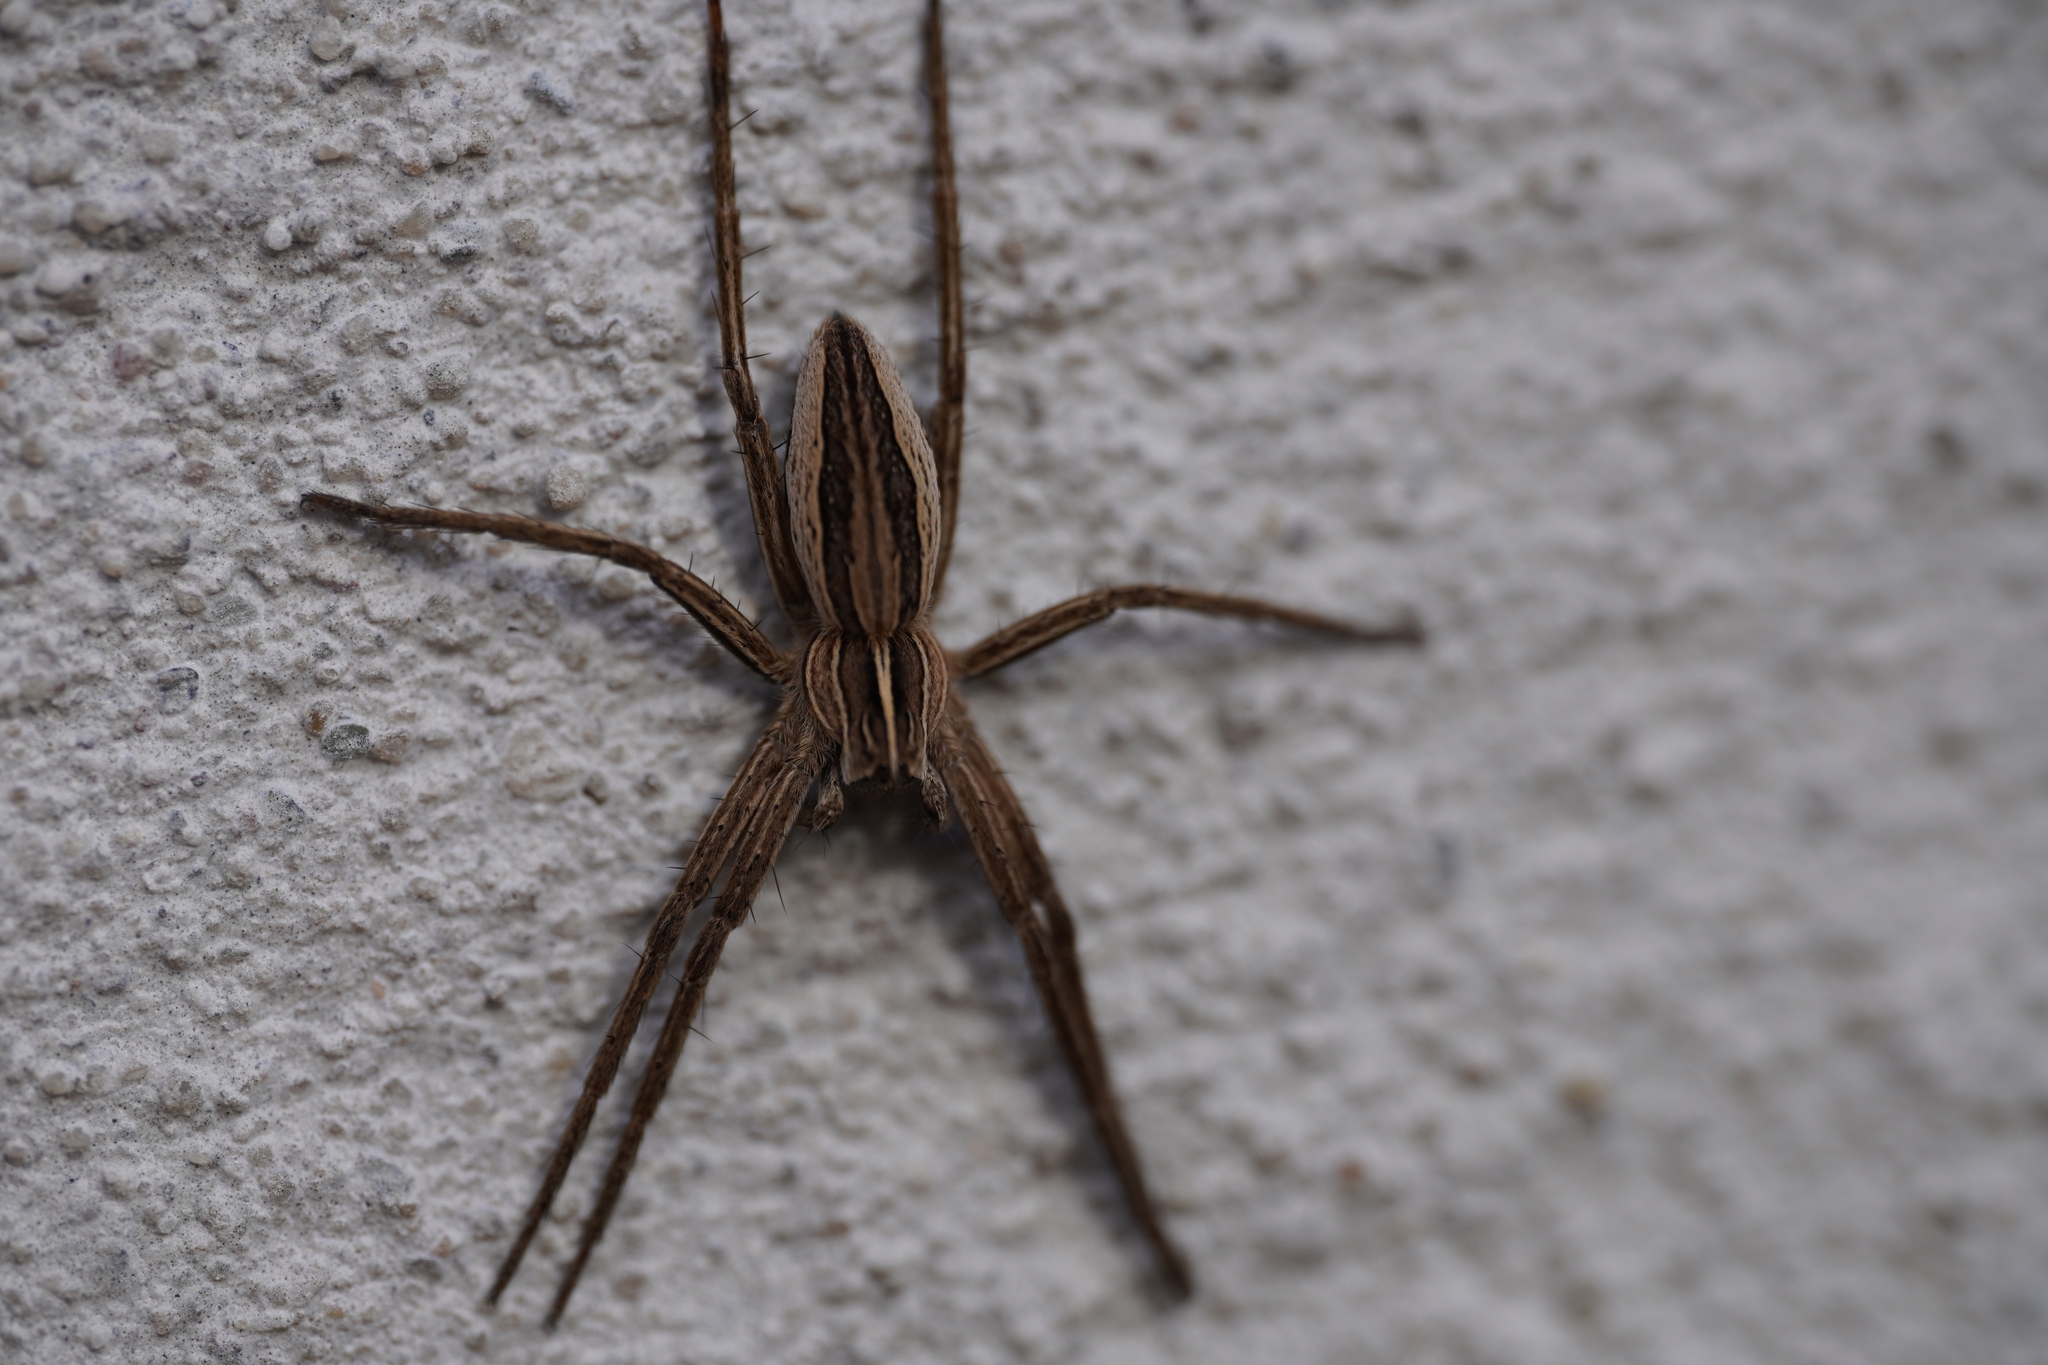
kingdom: Animalia
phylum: Arthropoda
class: Arachnida
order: Araneae
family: Pisauridae
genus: Pisaura
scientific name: Pisaura mirabilis
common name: Tent spider
